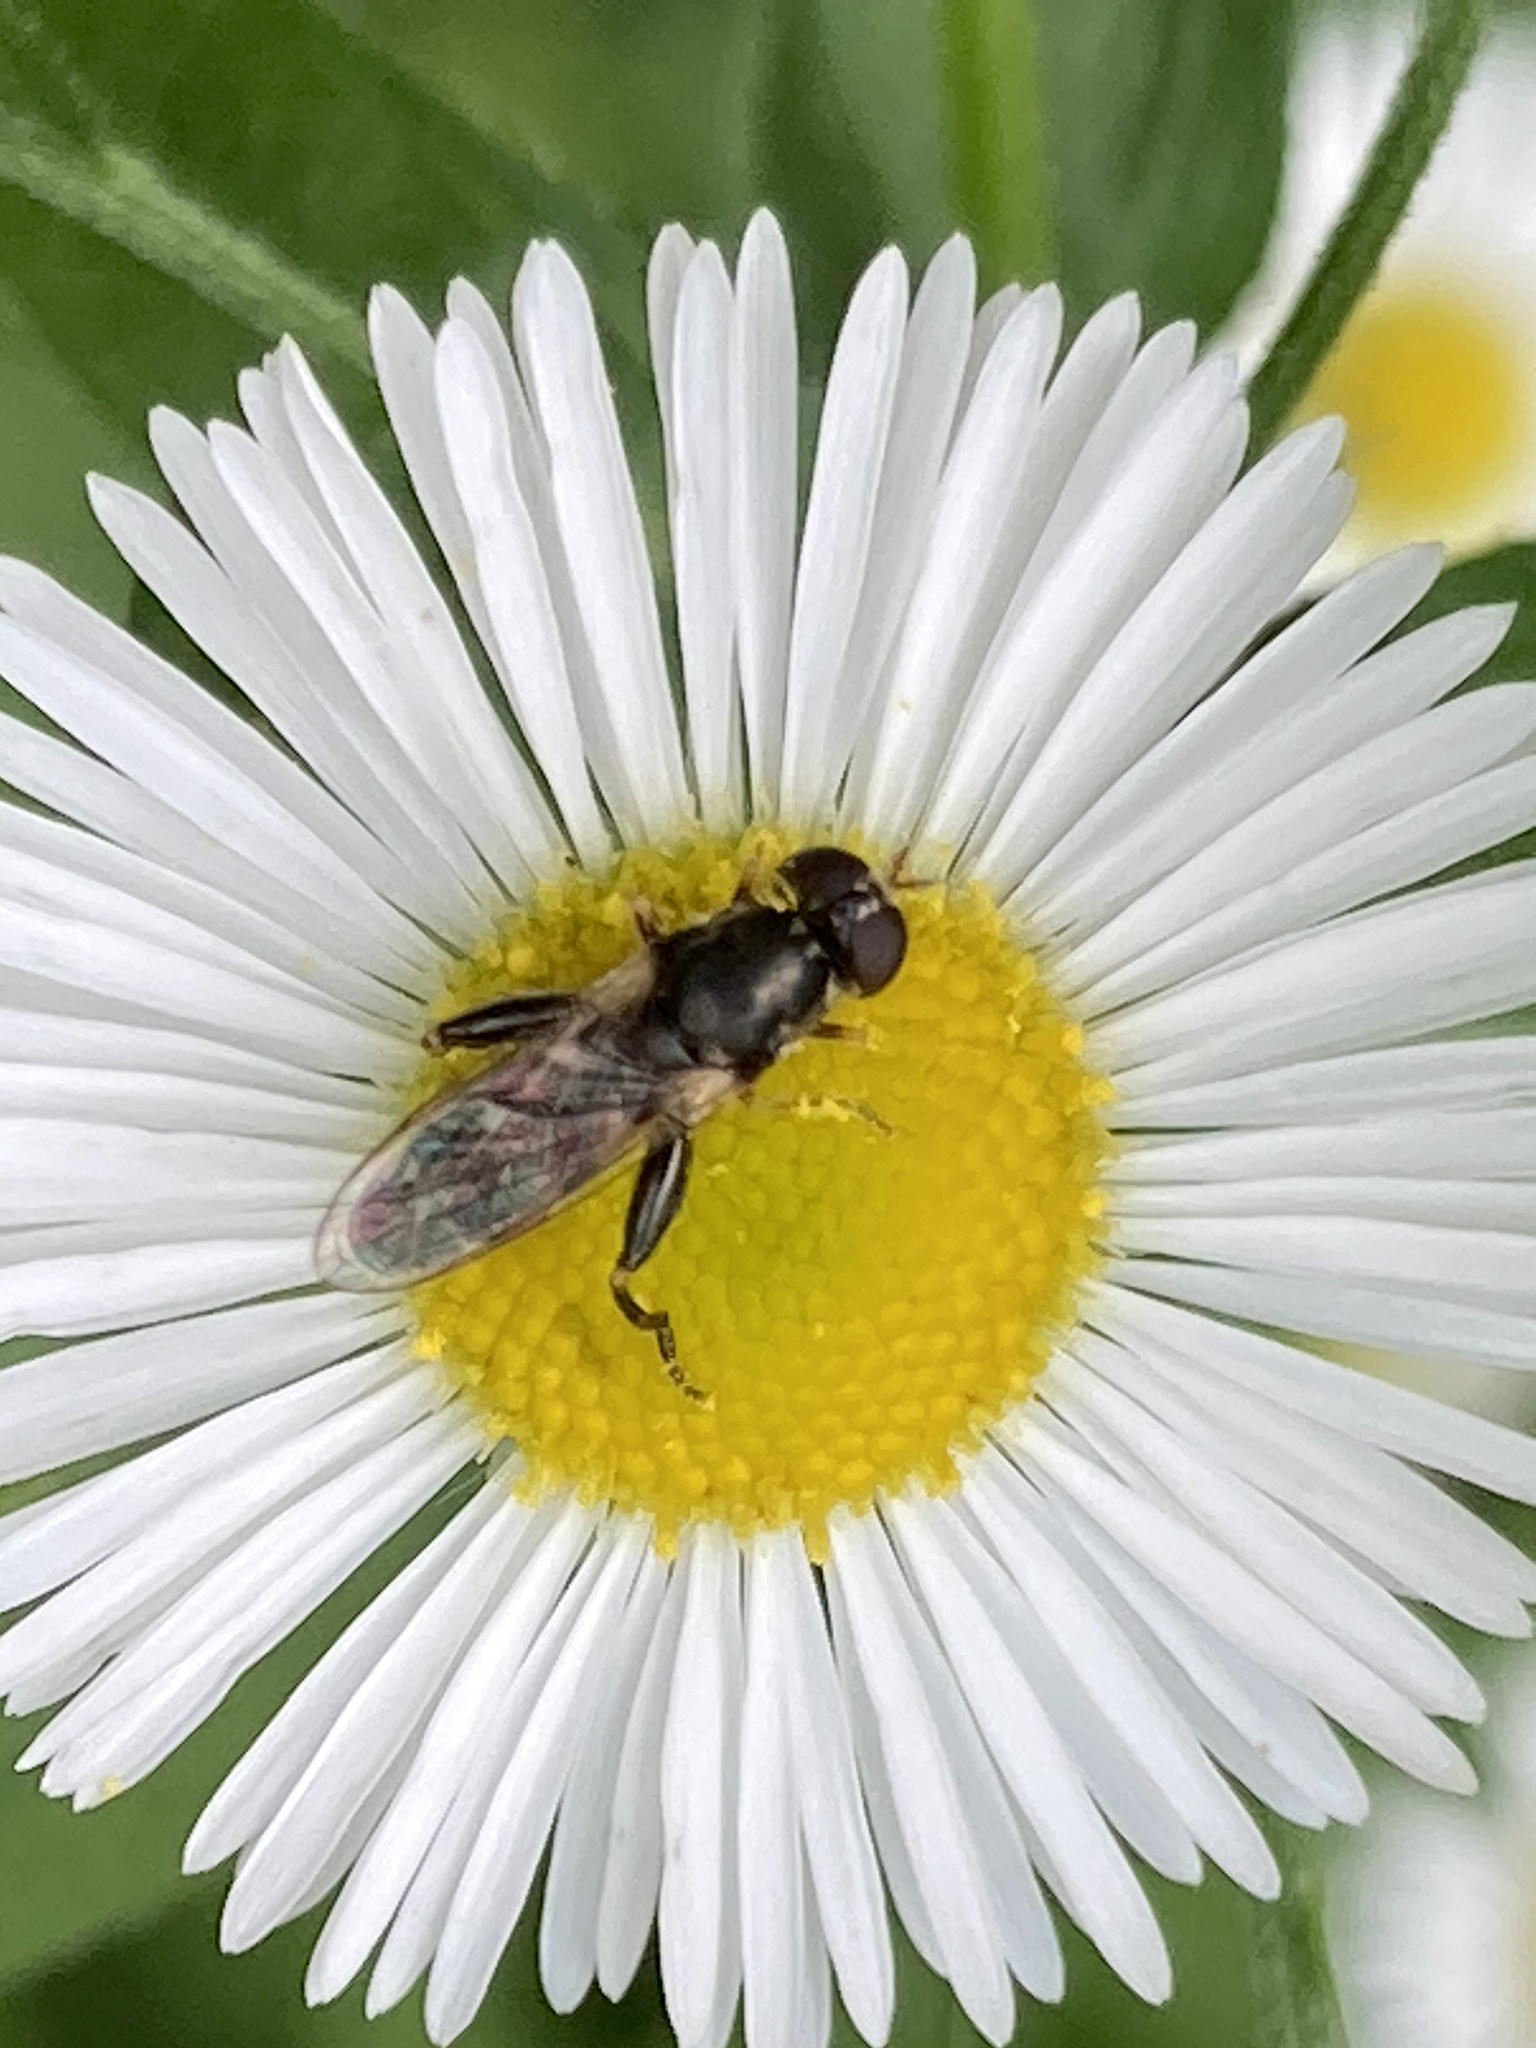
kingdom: Animalia
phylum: Arthropoda
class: Insecta
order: Diptera
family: Syrphidae
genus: Syritta
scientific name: Syritta pipiens
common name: Hover fly
